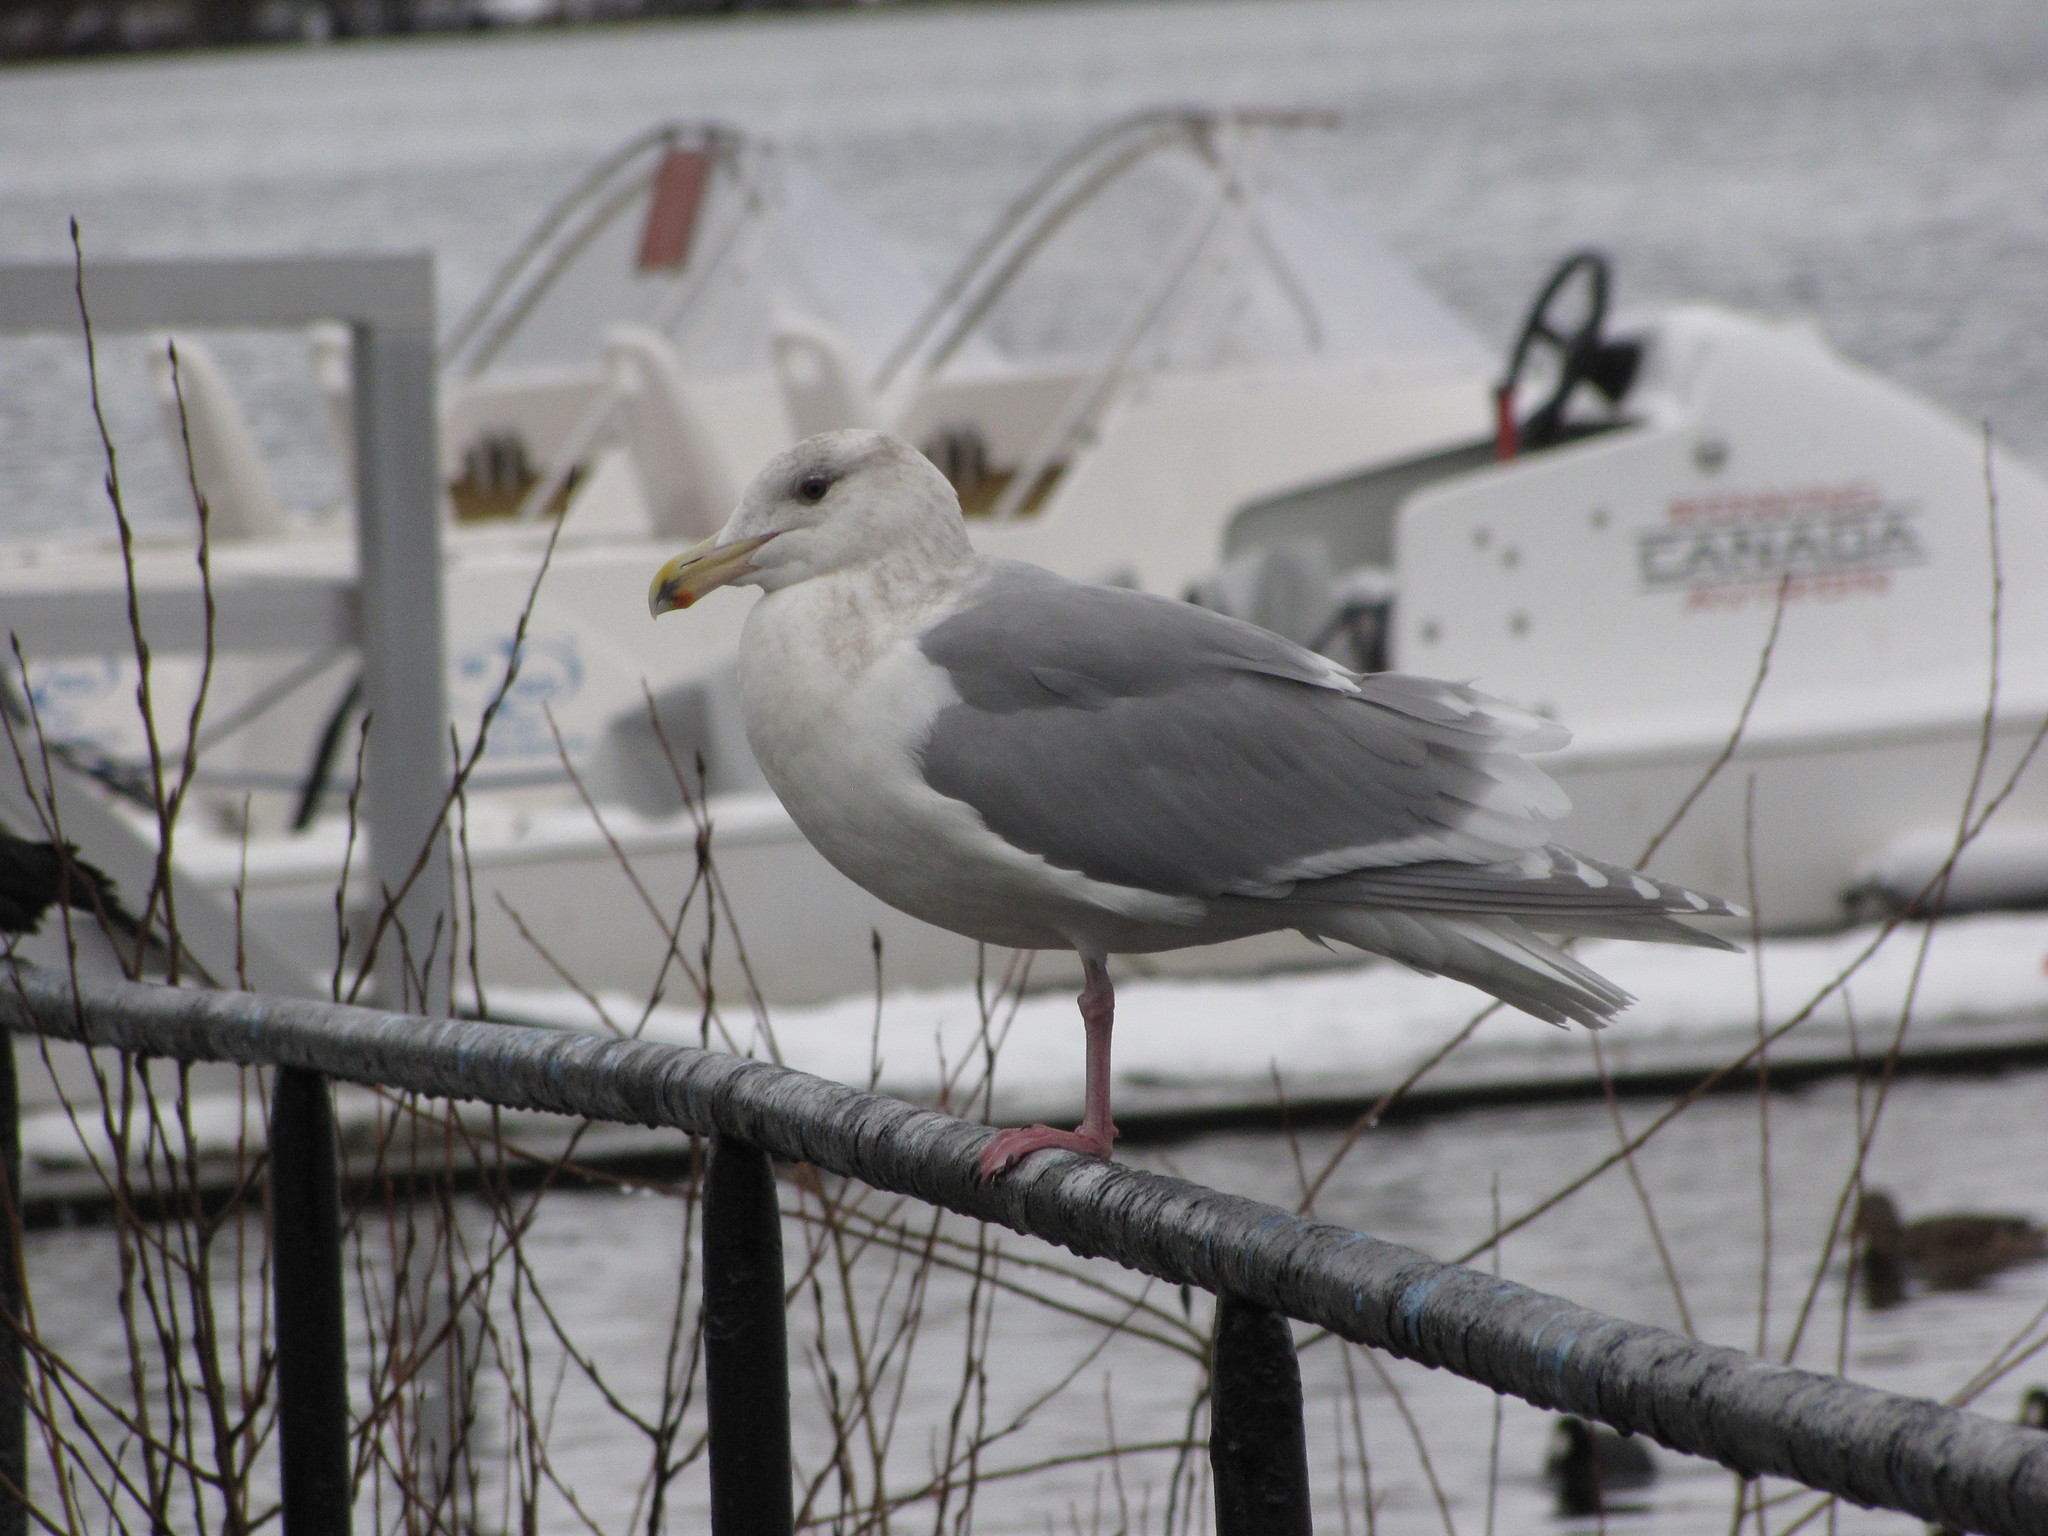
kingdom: Animalia
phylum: Chordata
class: Aves
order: Charadriiformes
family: Laridae
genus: Larus
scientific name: Larus glaucescens
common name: Glaucous-winged gull
